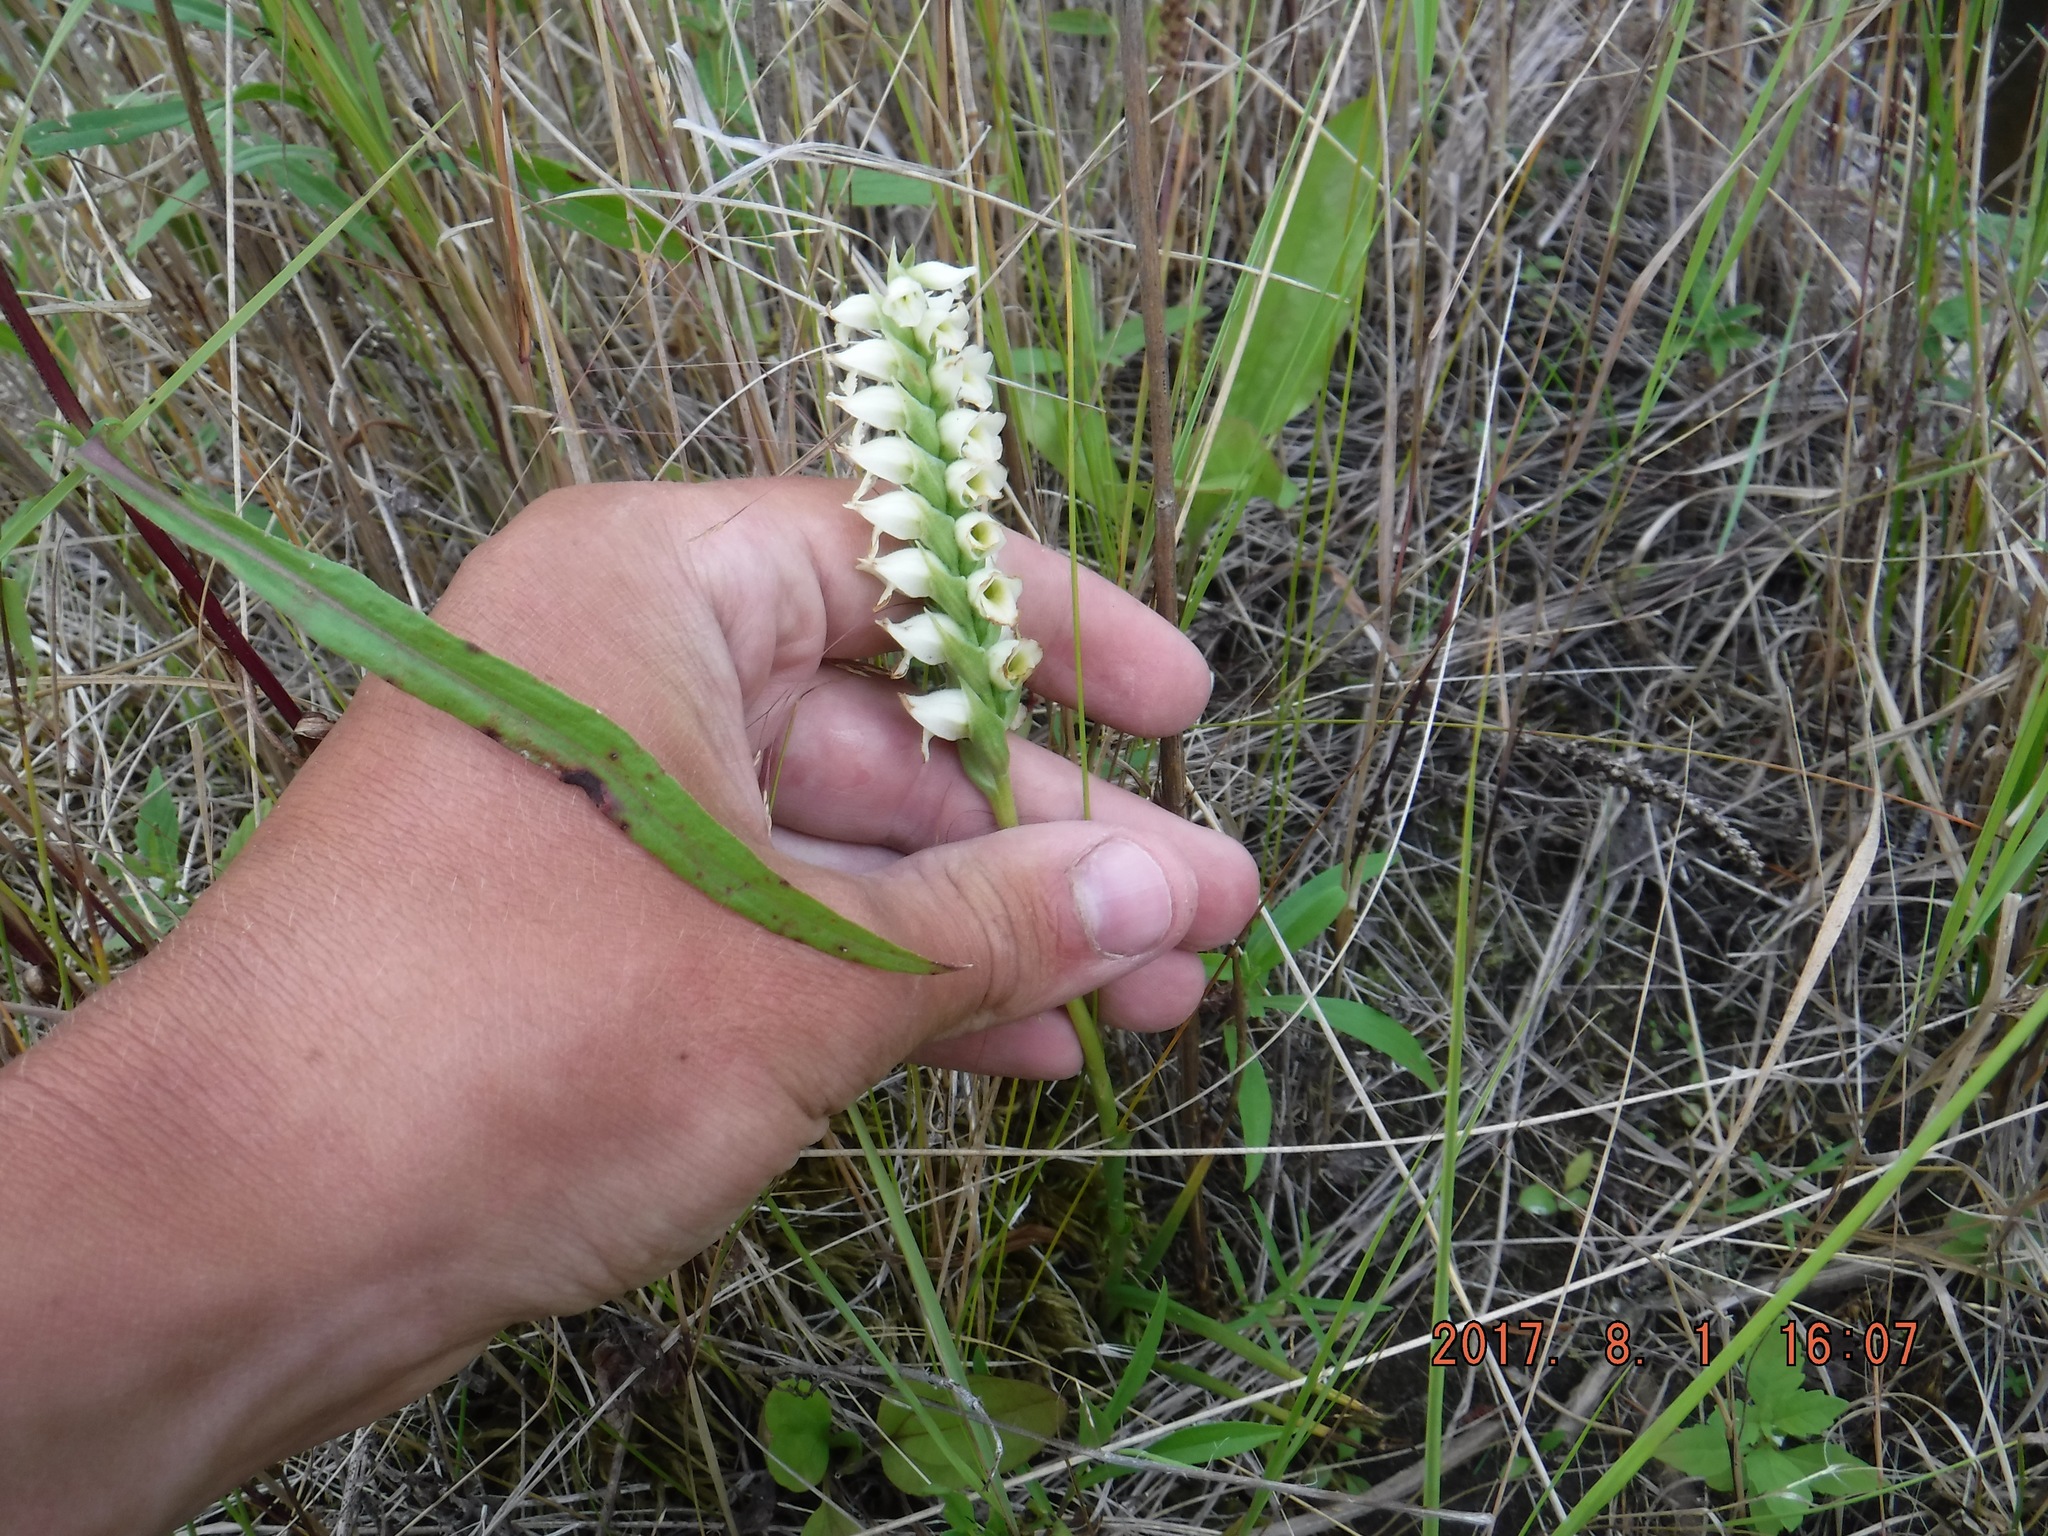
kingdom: Plantae
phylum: Tracheophyta
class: Liliopsida
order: Asparagales
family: Orchidaceae
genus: Spiranthes
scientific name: Spiranthes romanzoffiana
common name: Irish lady's-tresses
